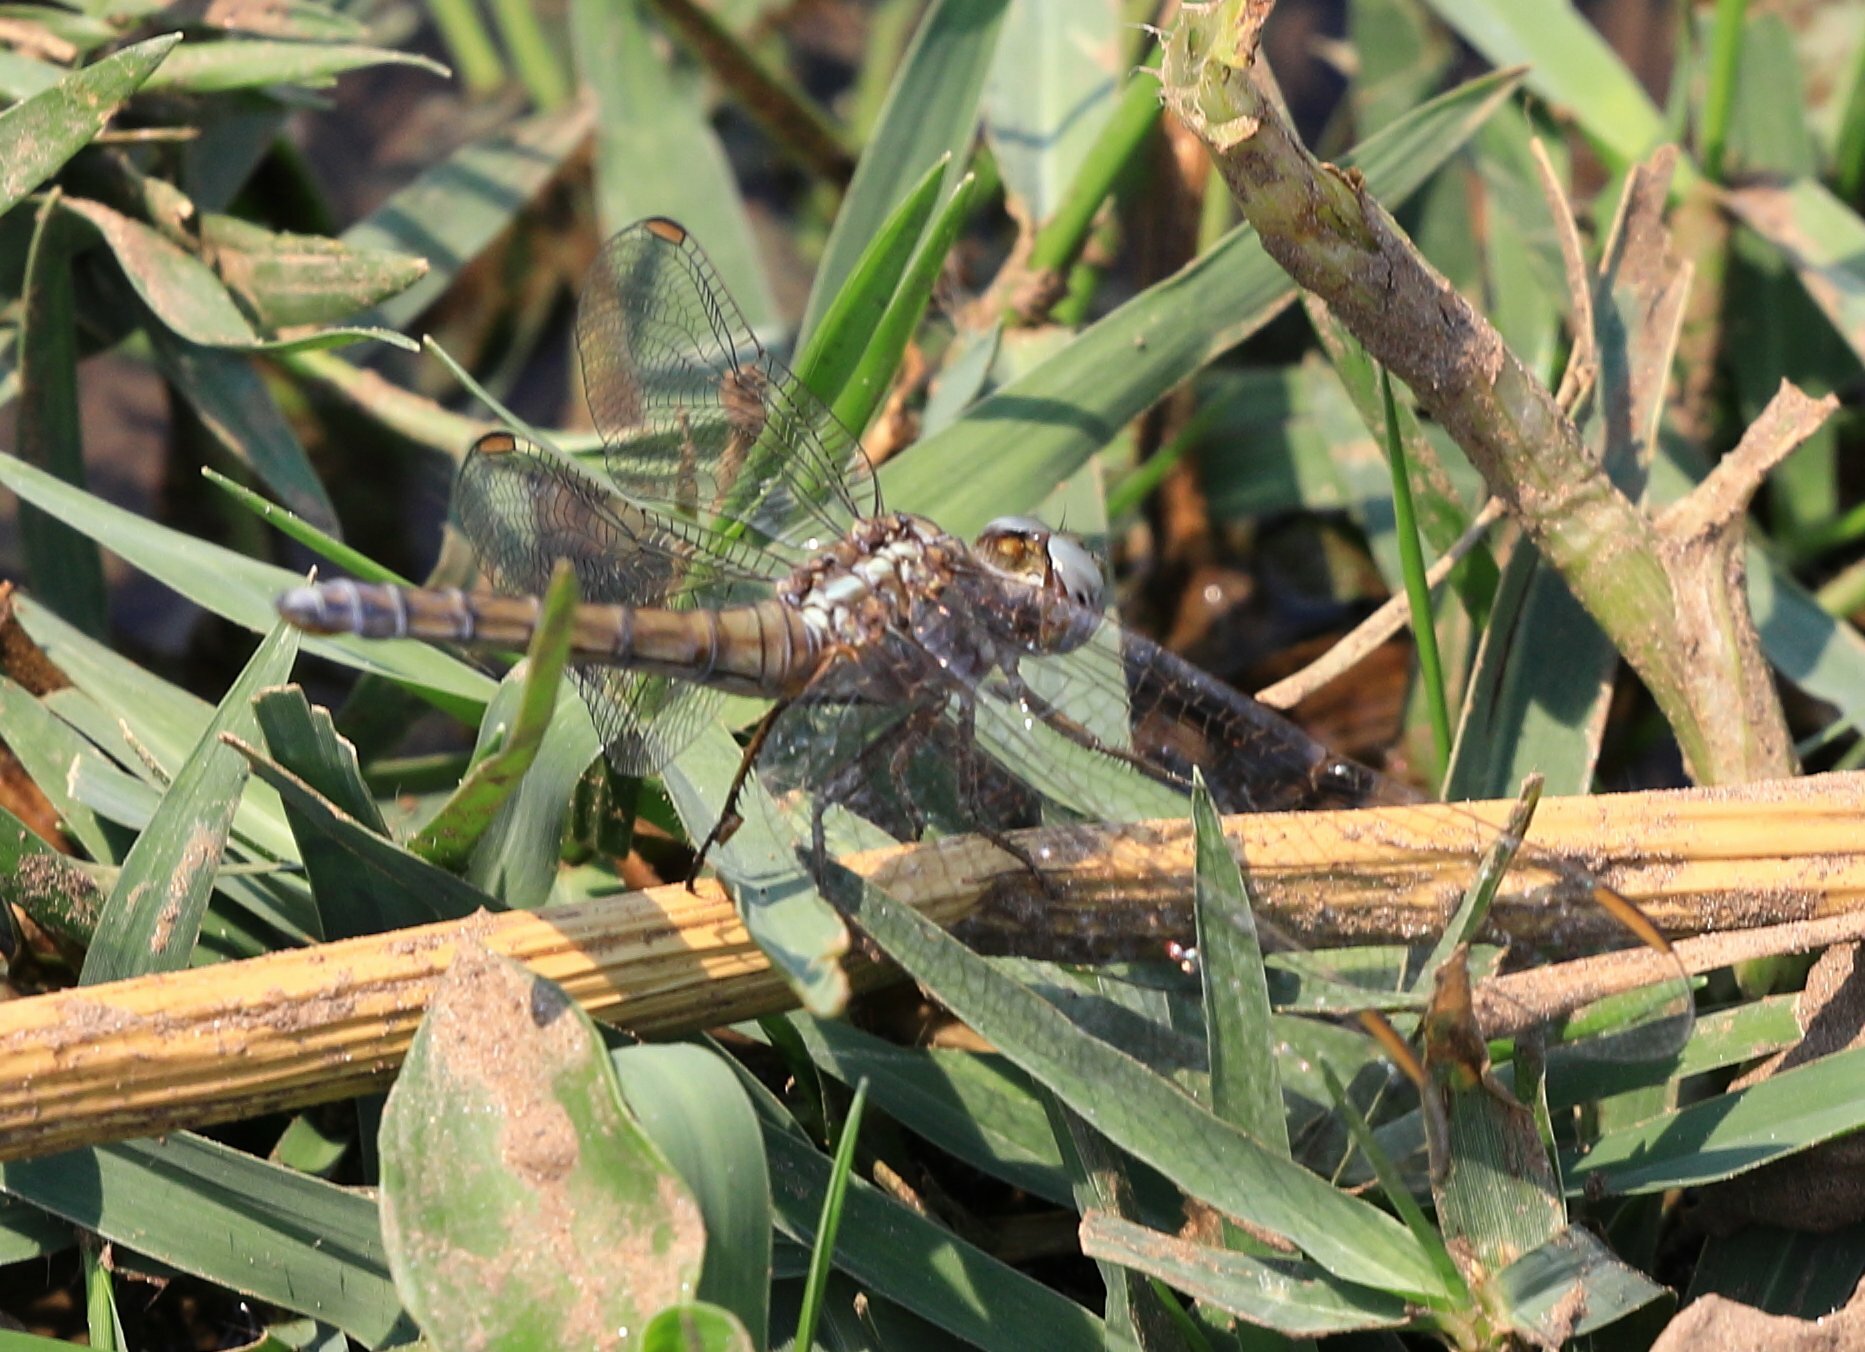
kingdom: Animalia
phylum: Arthropoda
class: Insecta
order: Odonata
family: Libellulidae
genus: Orthetrum
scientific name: Orthetrum chrysostigma
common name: Epaulet skimmer
